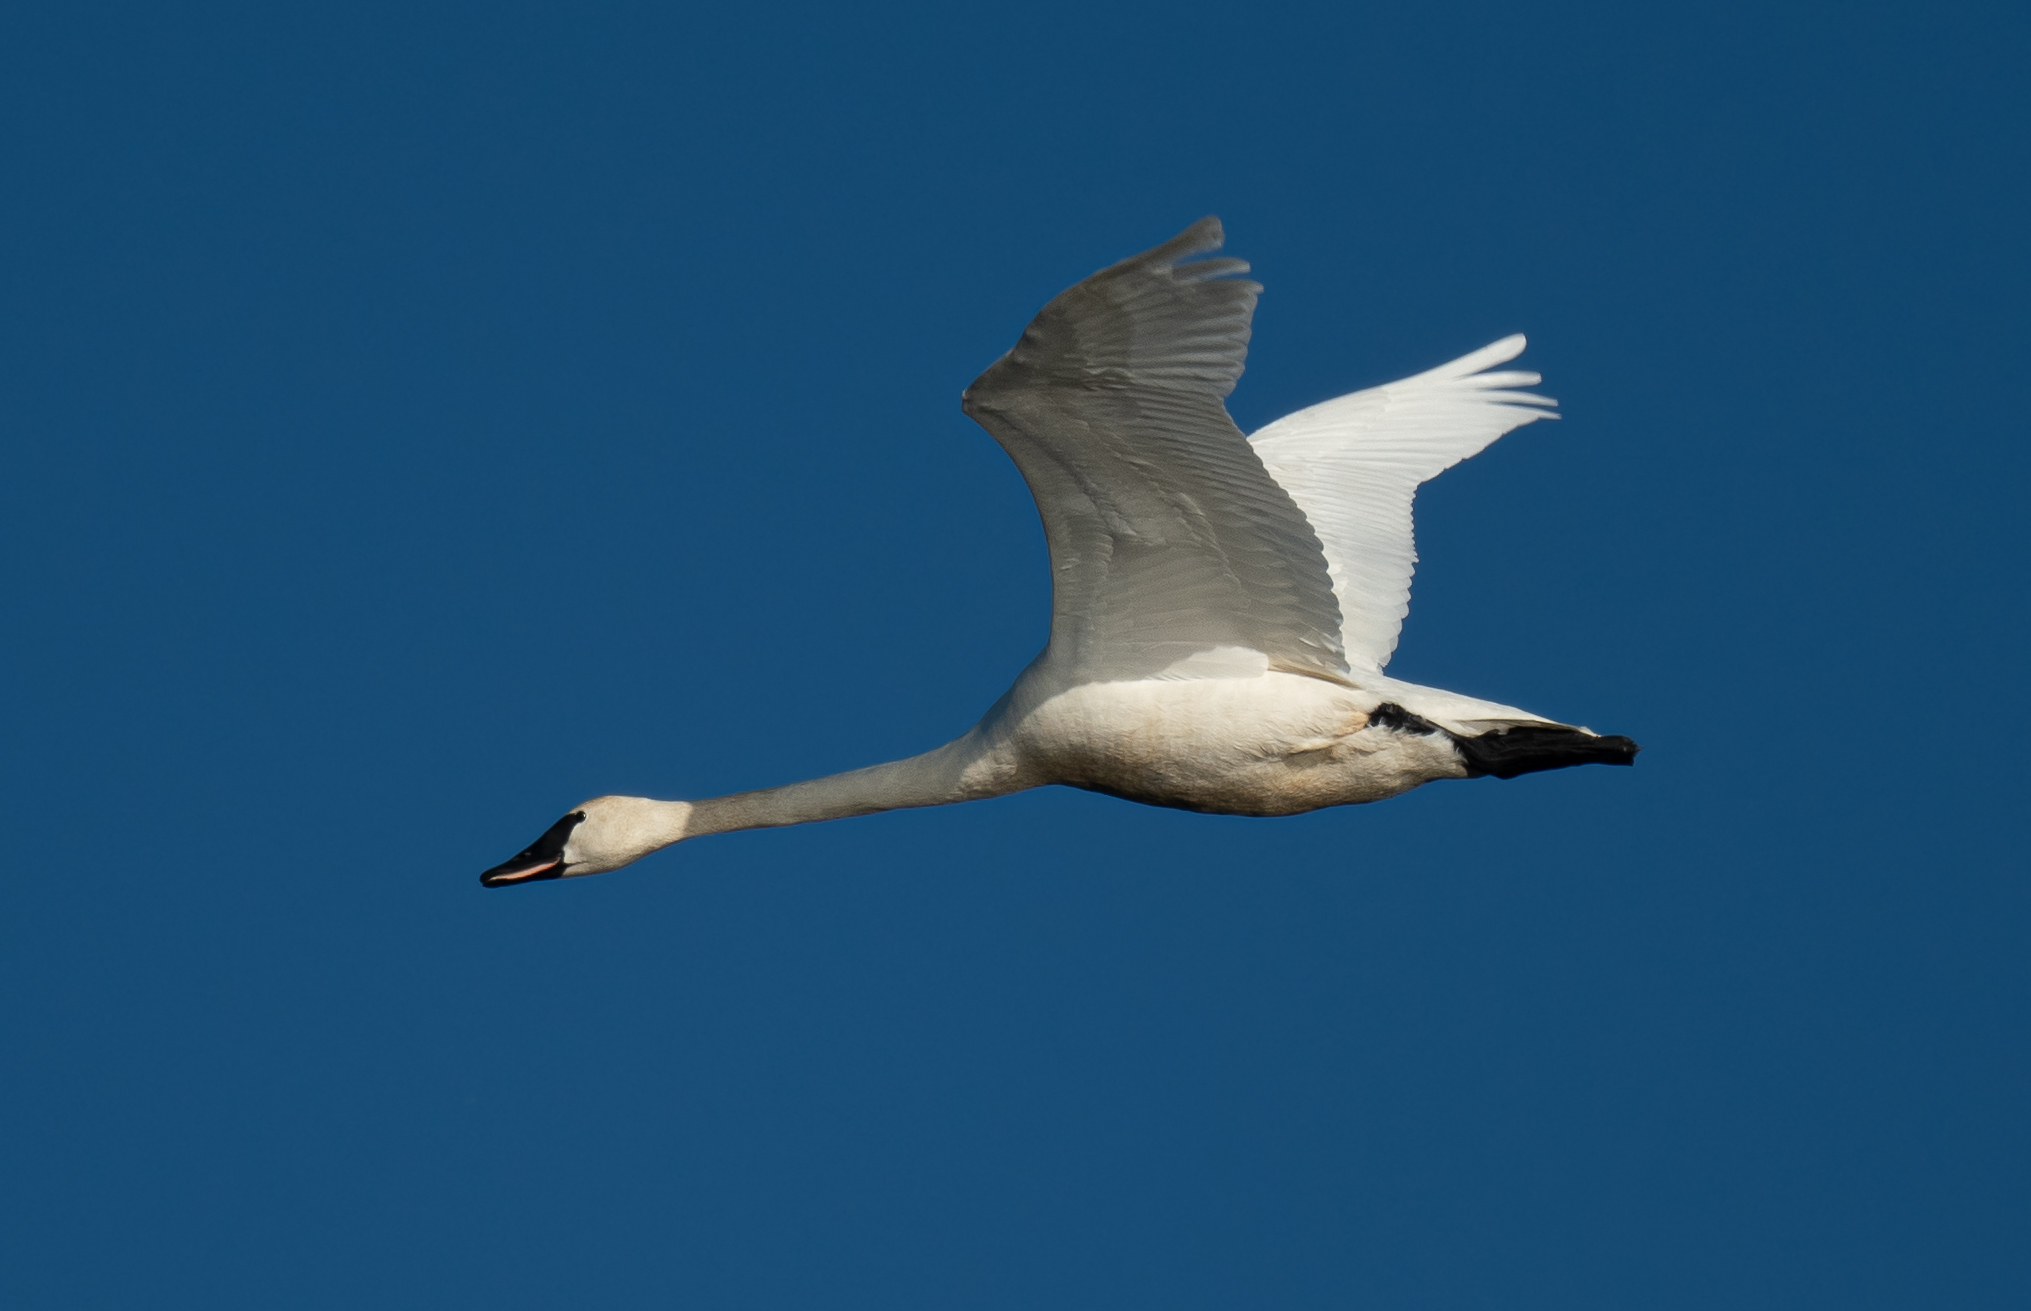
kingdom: Animalia
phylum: Chordata
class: Aves
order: Anseriformes
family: Anatidae
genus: Cygnus
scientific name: Cygnus buccinator
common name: Trumpeter swan
